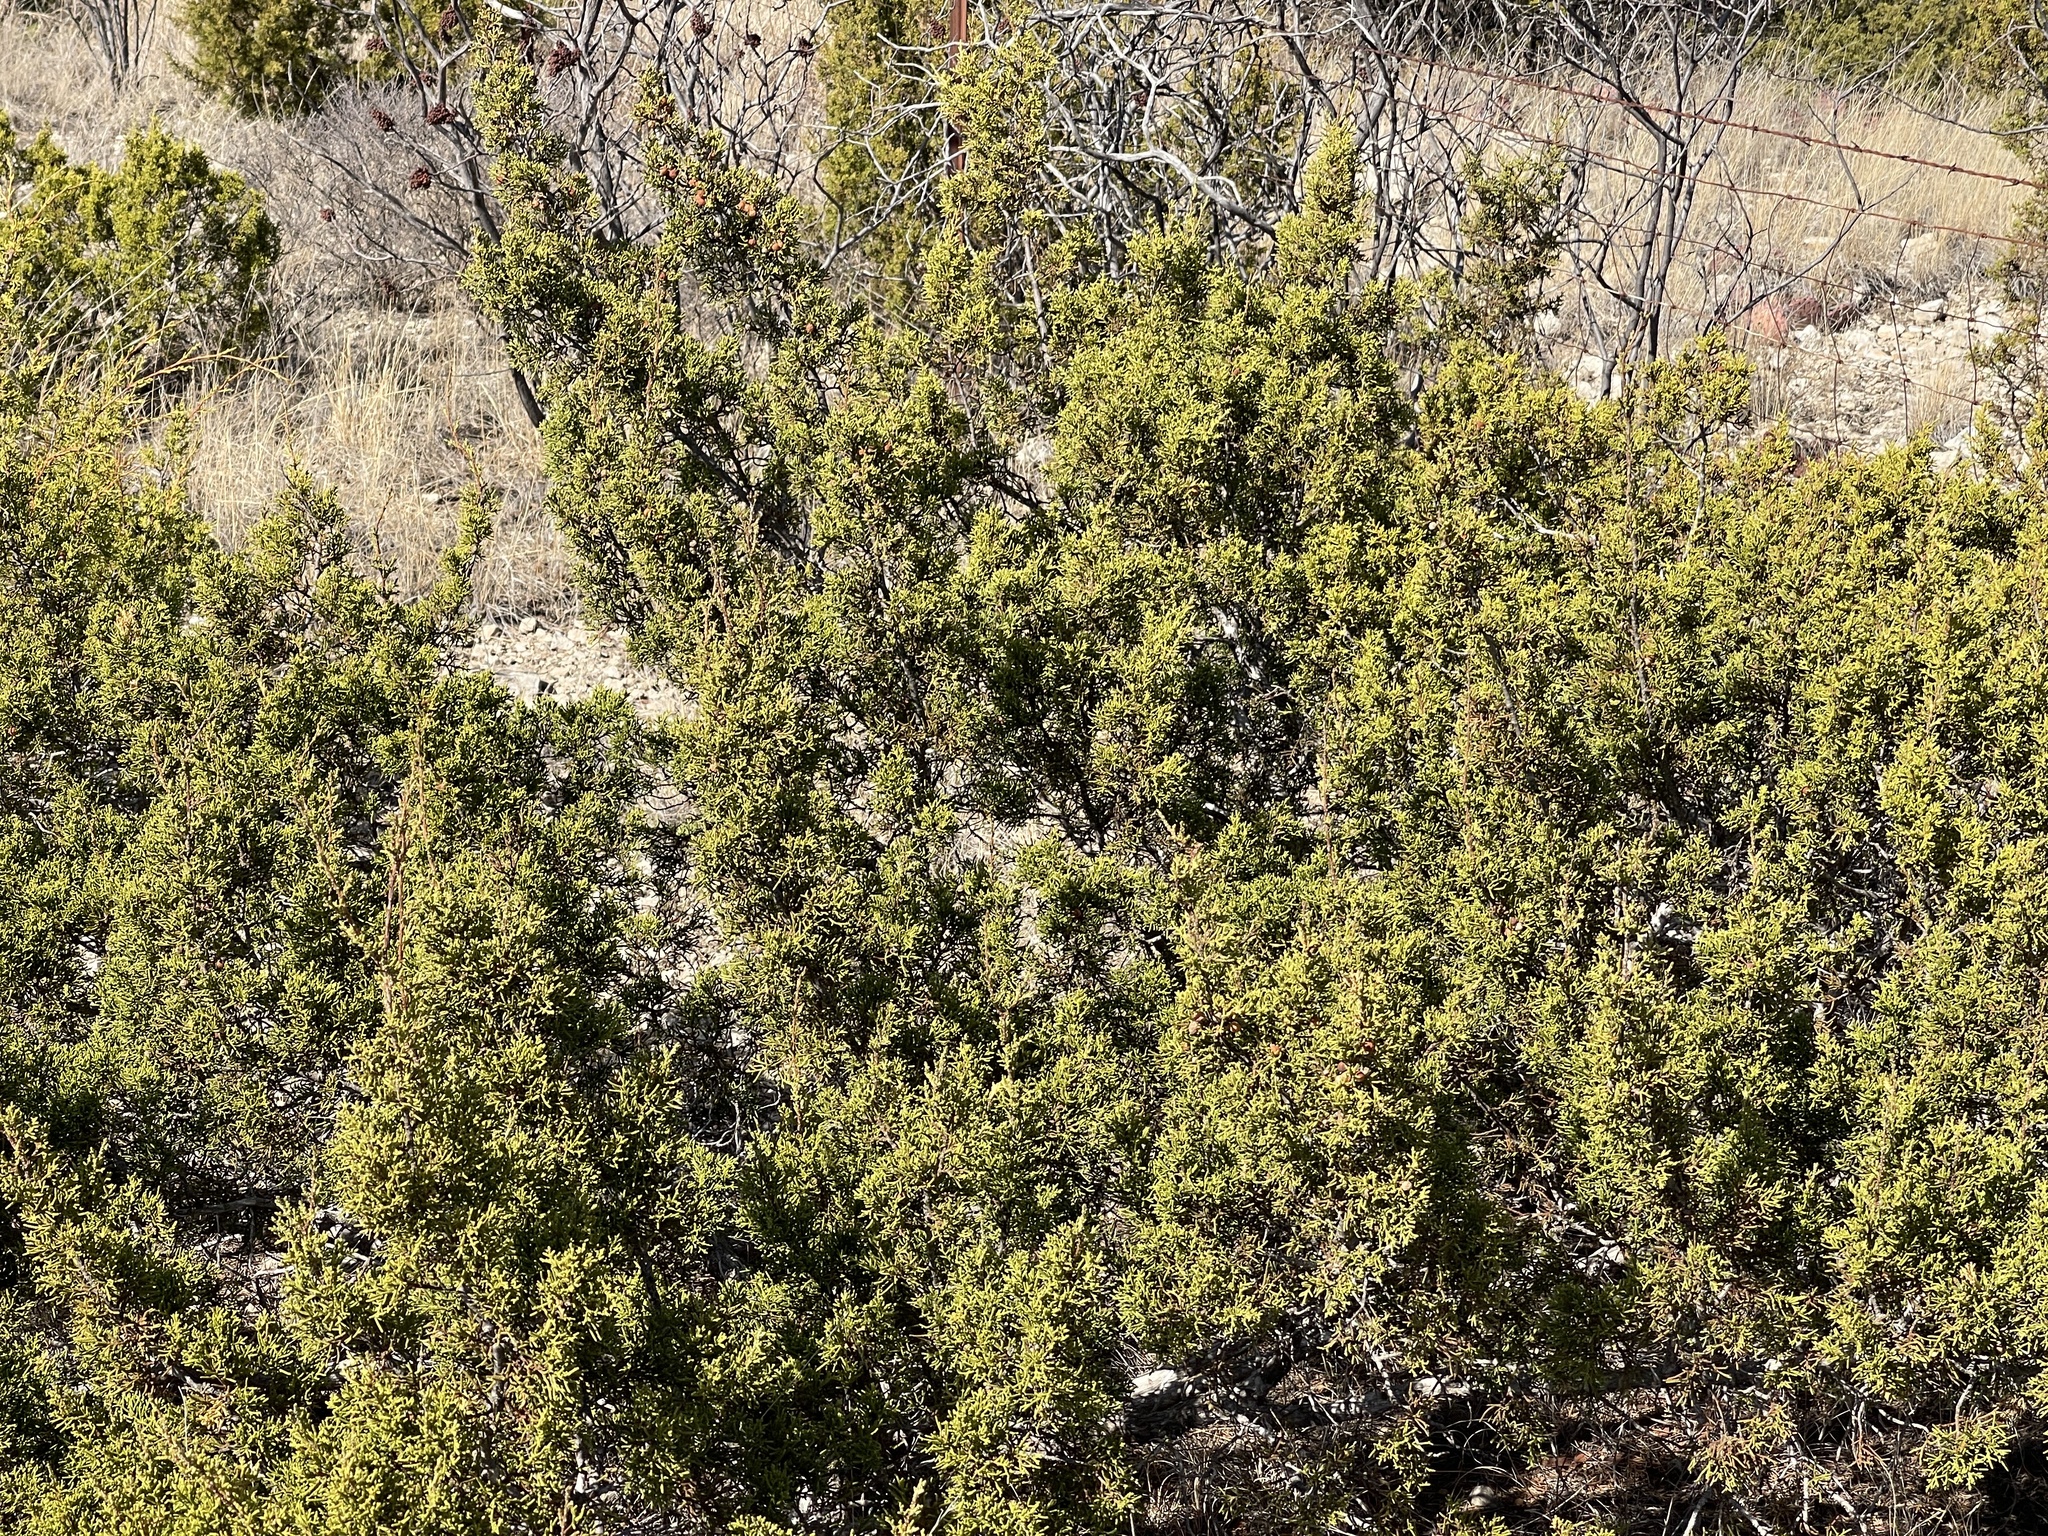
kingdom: Plantae
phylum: Tracheophyta
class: Pinopsida
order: Pinales
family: Cupressaceae
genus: Juniperus
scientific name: Juniperus pinchotii
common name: Pinchot juniper
